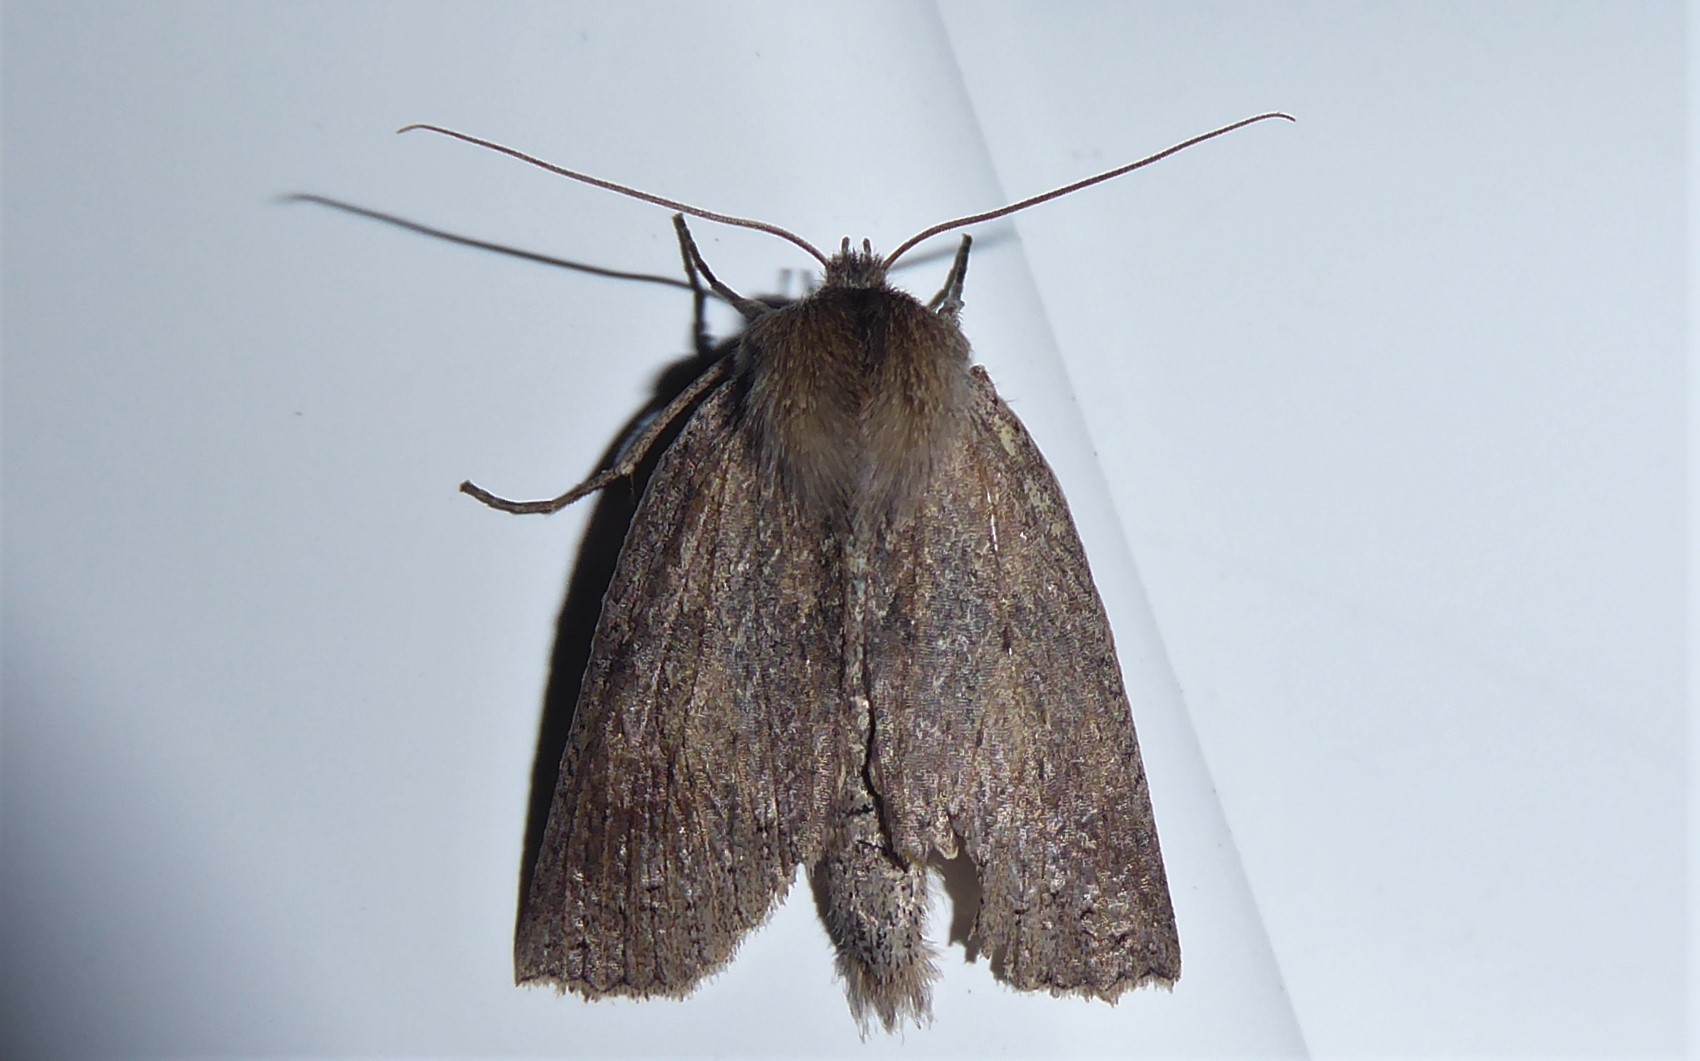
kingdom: Animalia
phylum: Arthropoda
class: Insecta
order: Lepidoptera
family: Geometridae
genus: Declana
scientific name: Declana leptomera
